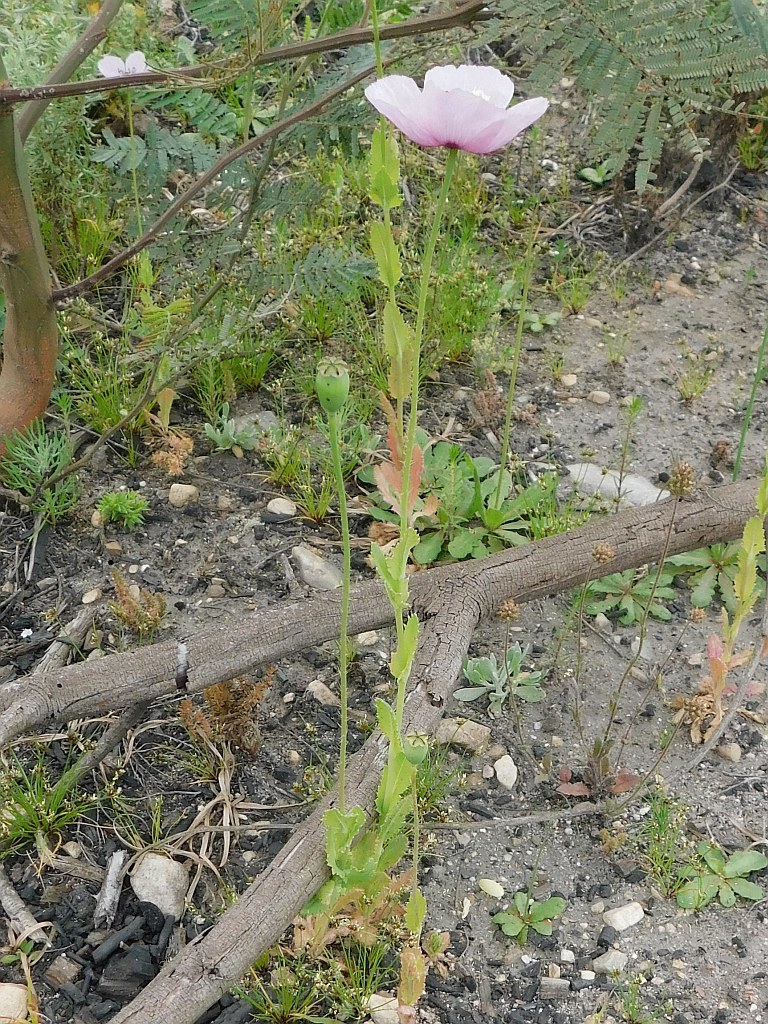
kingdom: Plantae
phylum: Tracheophyta
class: Magnoliopsida
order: Ranunculales
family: Papaveraceae
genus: Papaver
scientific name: Papaver somniferum
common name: Opium poppy
